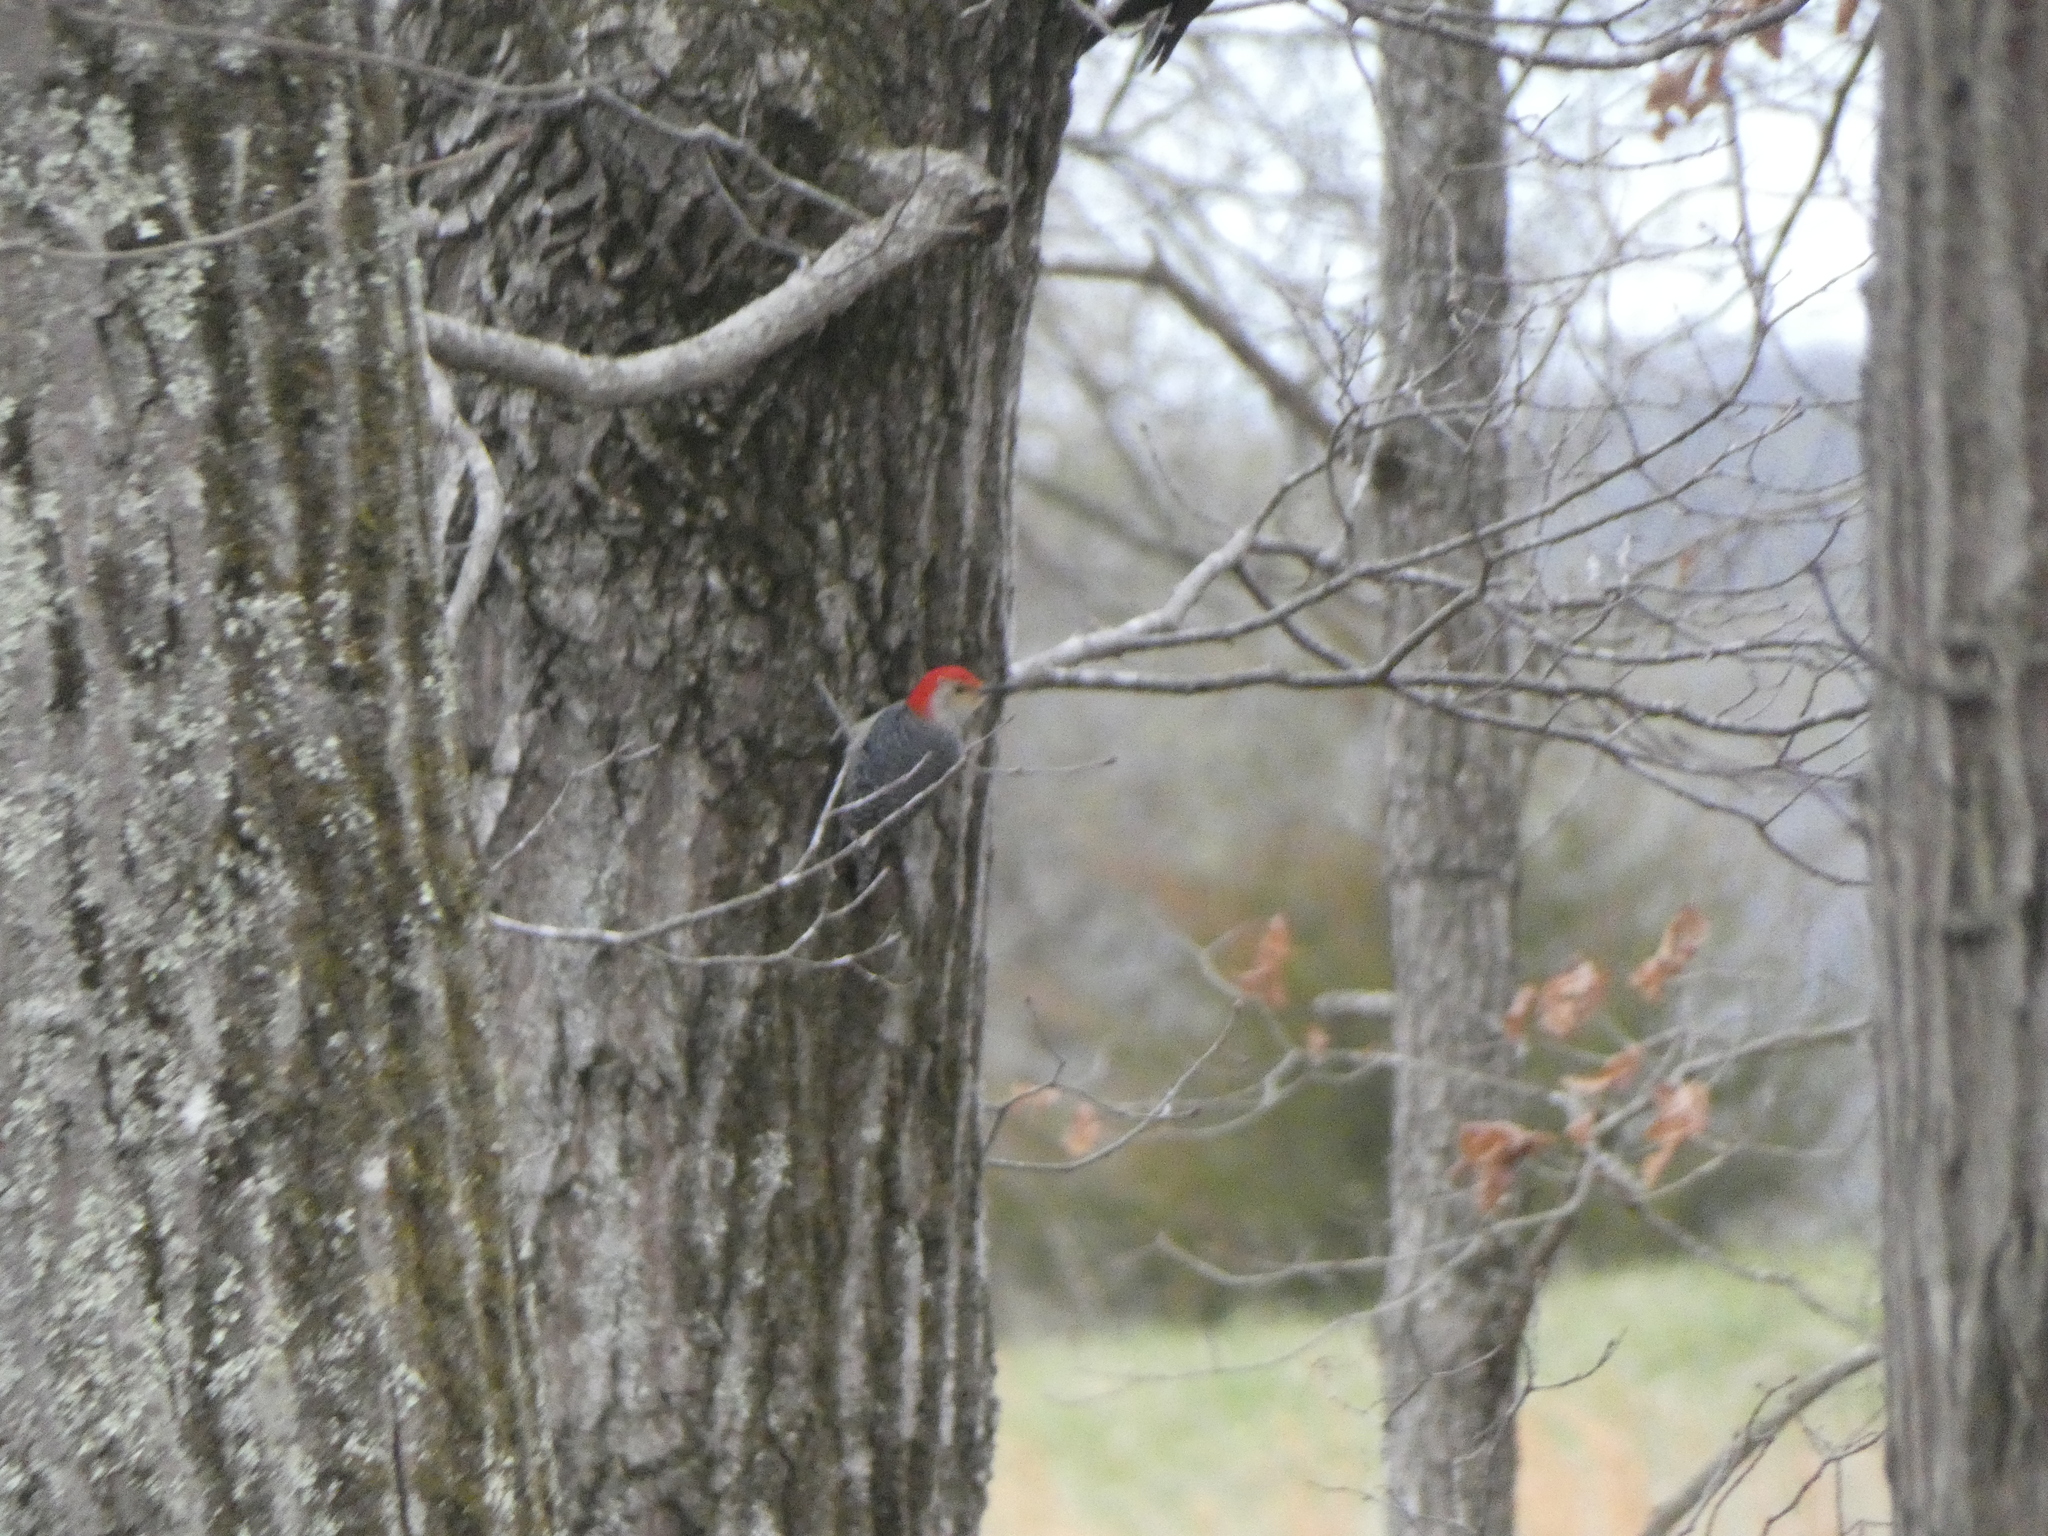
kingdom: Animalia
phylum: Chordata
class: Aves
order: Piciformes
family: Picidae
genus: Melanerpes
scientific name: Melanerpes carolinus
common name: Red-bellied woodpecker
